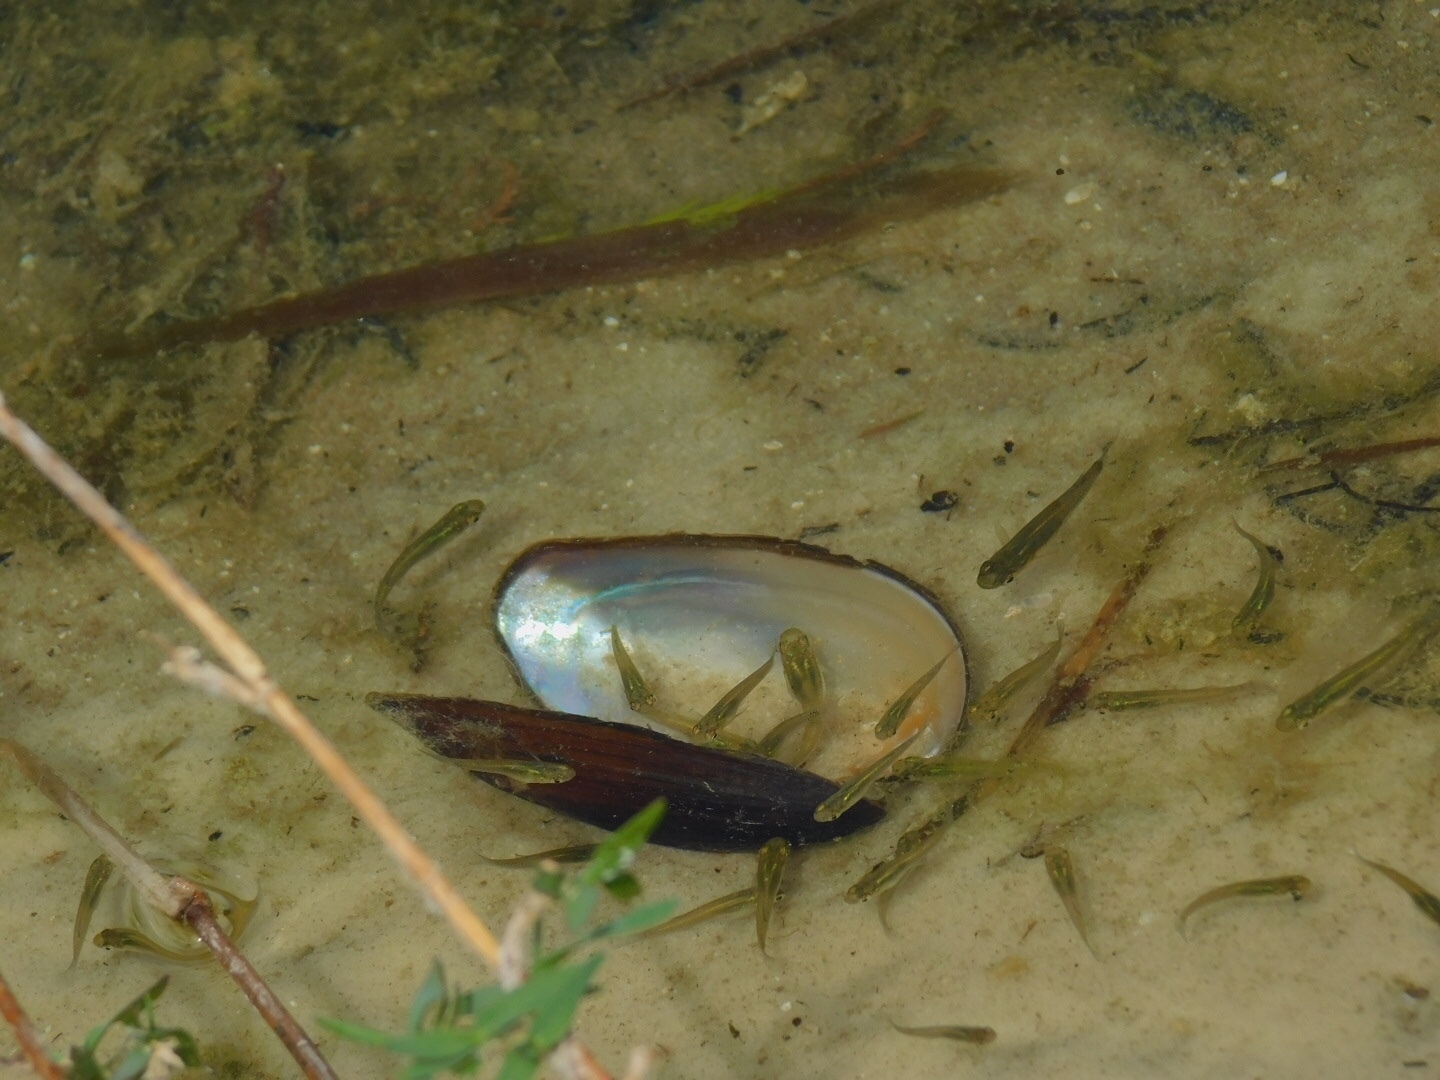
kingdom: Animalia
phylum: Chordata
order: Cyprinodontiformes
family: Poeciliidae
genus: Gambusia
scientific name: Gambusia holbrooki
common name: Eastern mosquitofish
